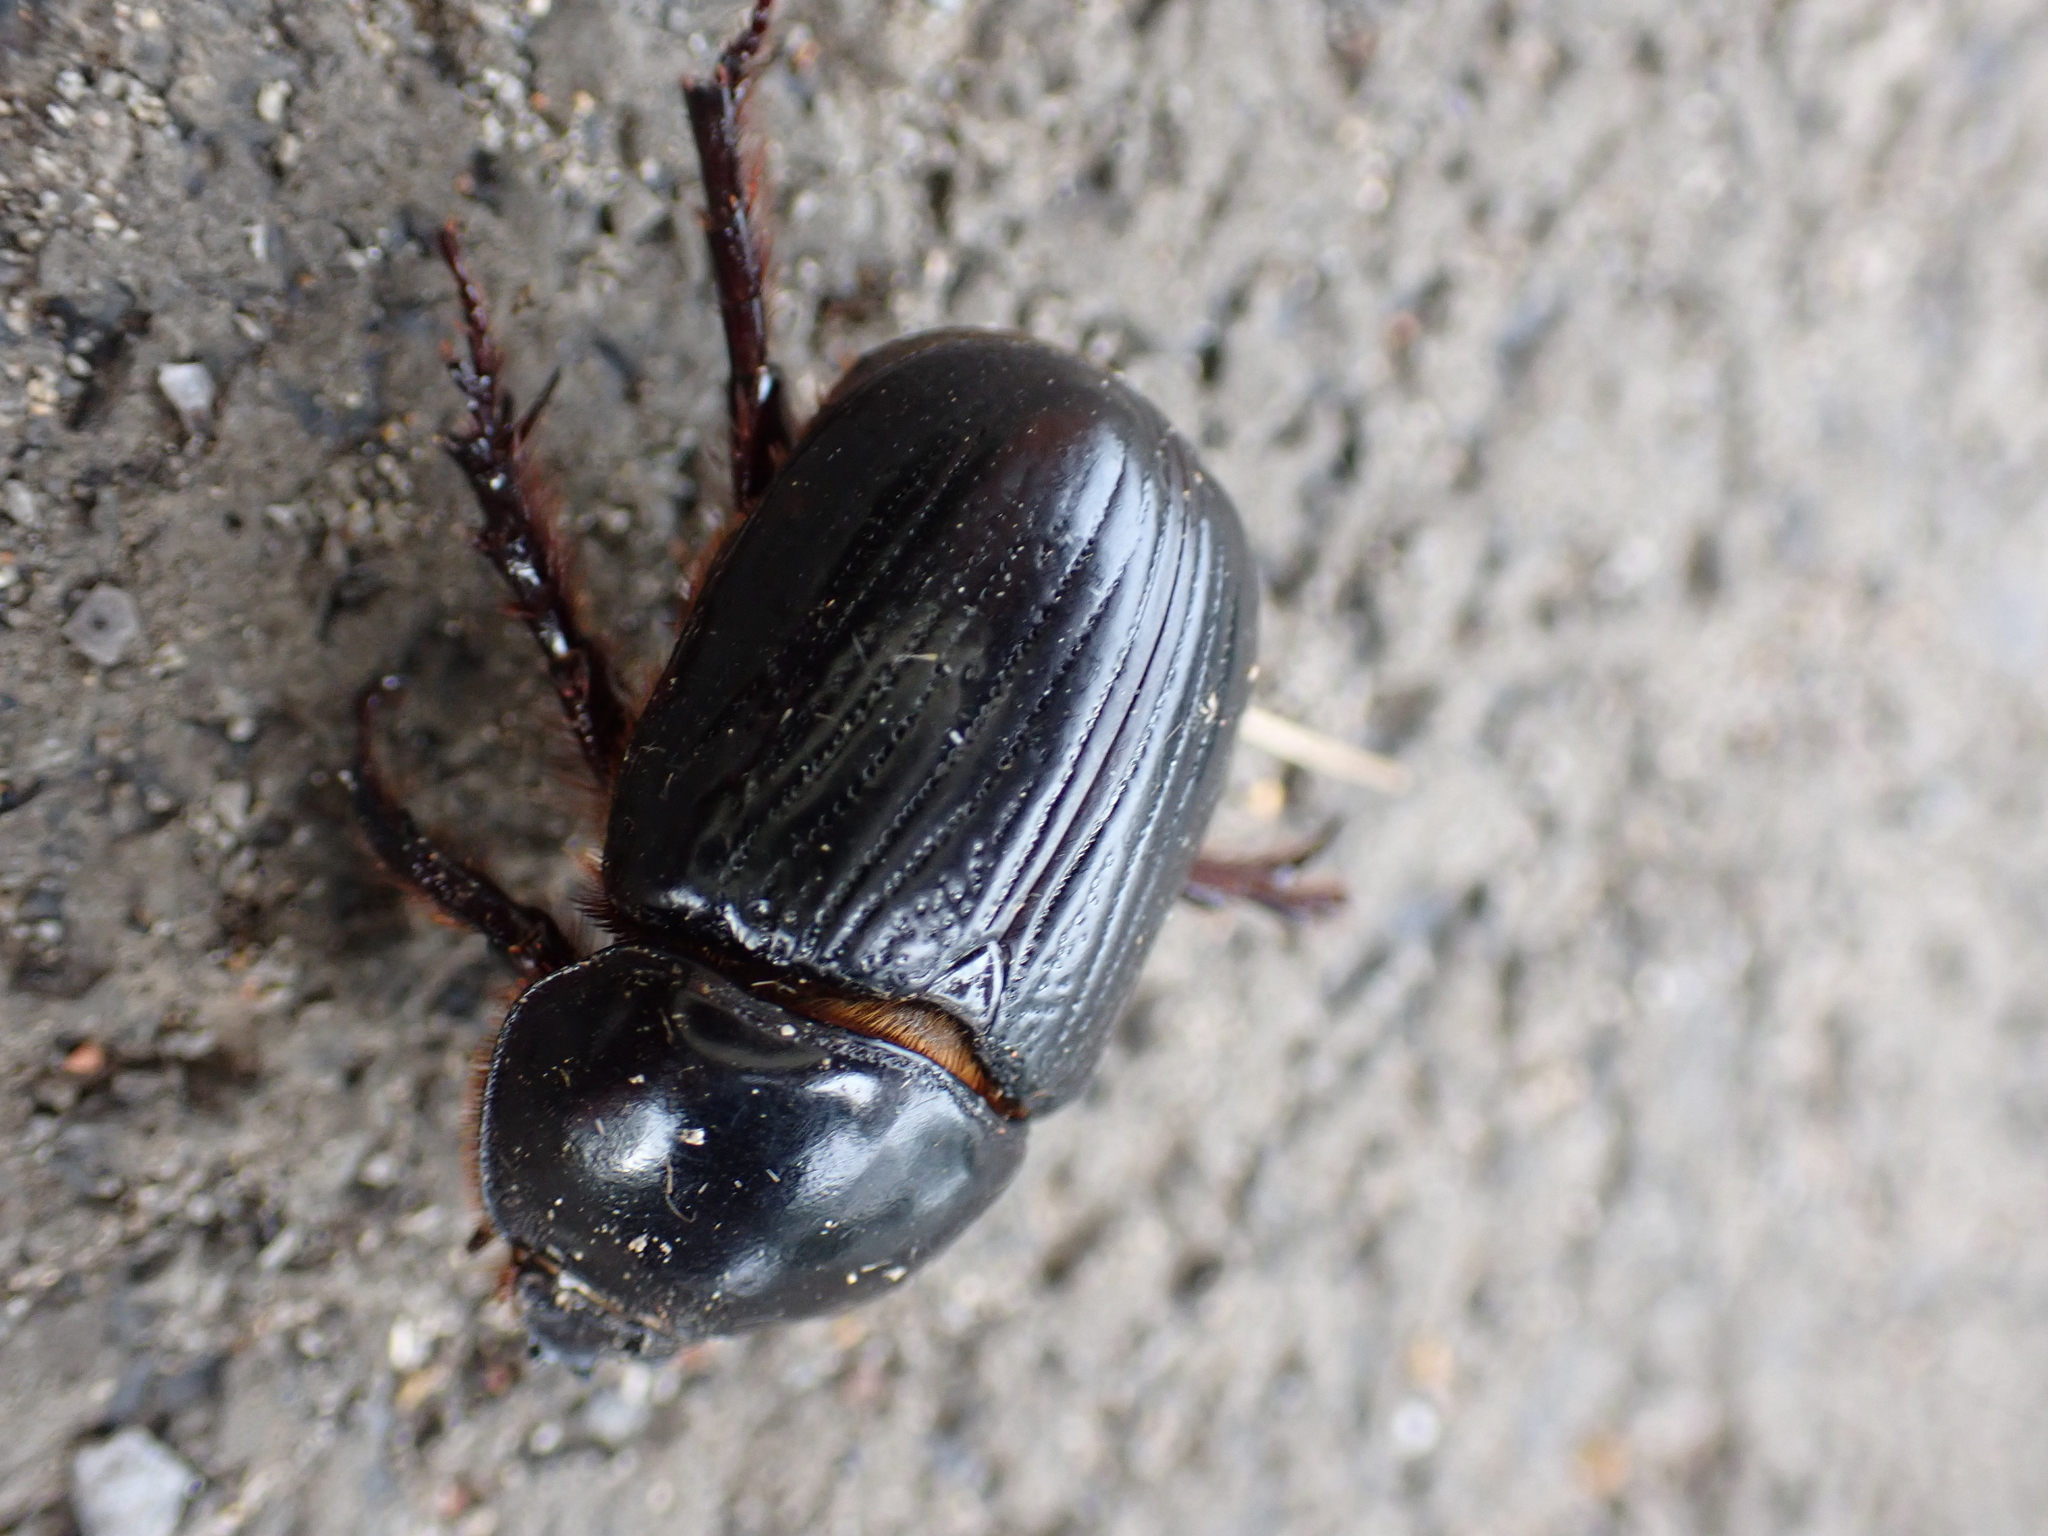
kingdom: Animalia
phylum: Arthropoda
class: Insecta
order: Coleoptera
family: Scarabaeidae
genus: Xyloryctes
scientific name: Xyloryctes jamaicensis
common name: Eastern rhinoceros beetle
